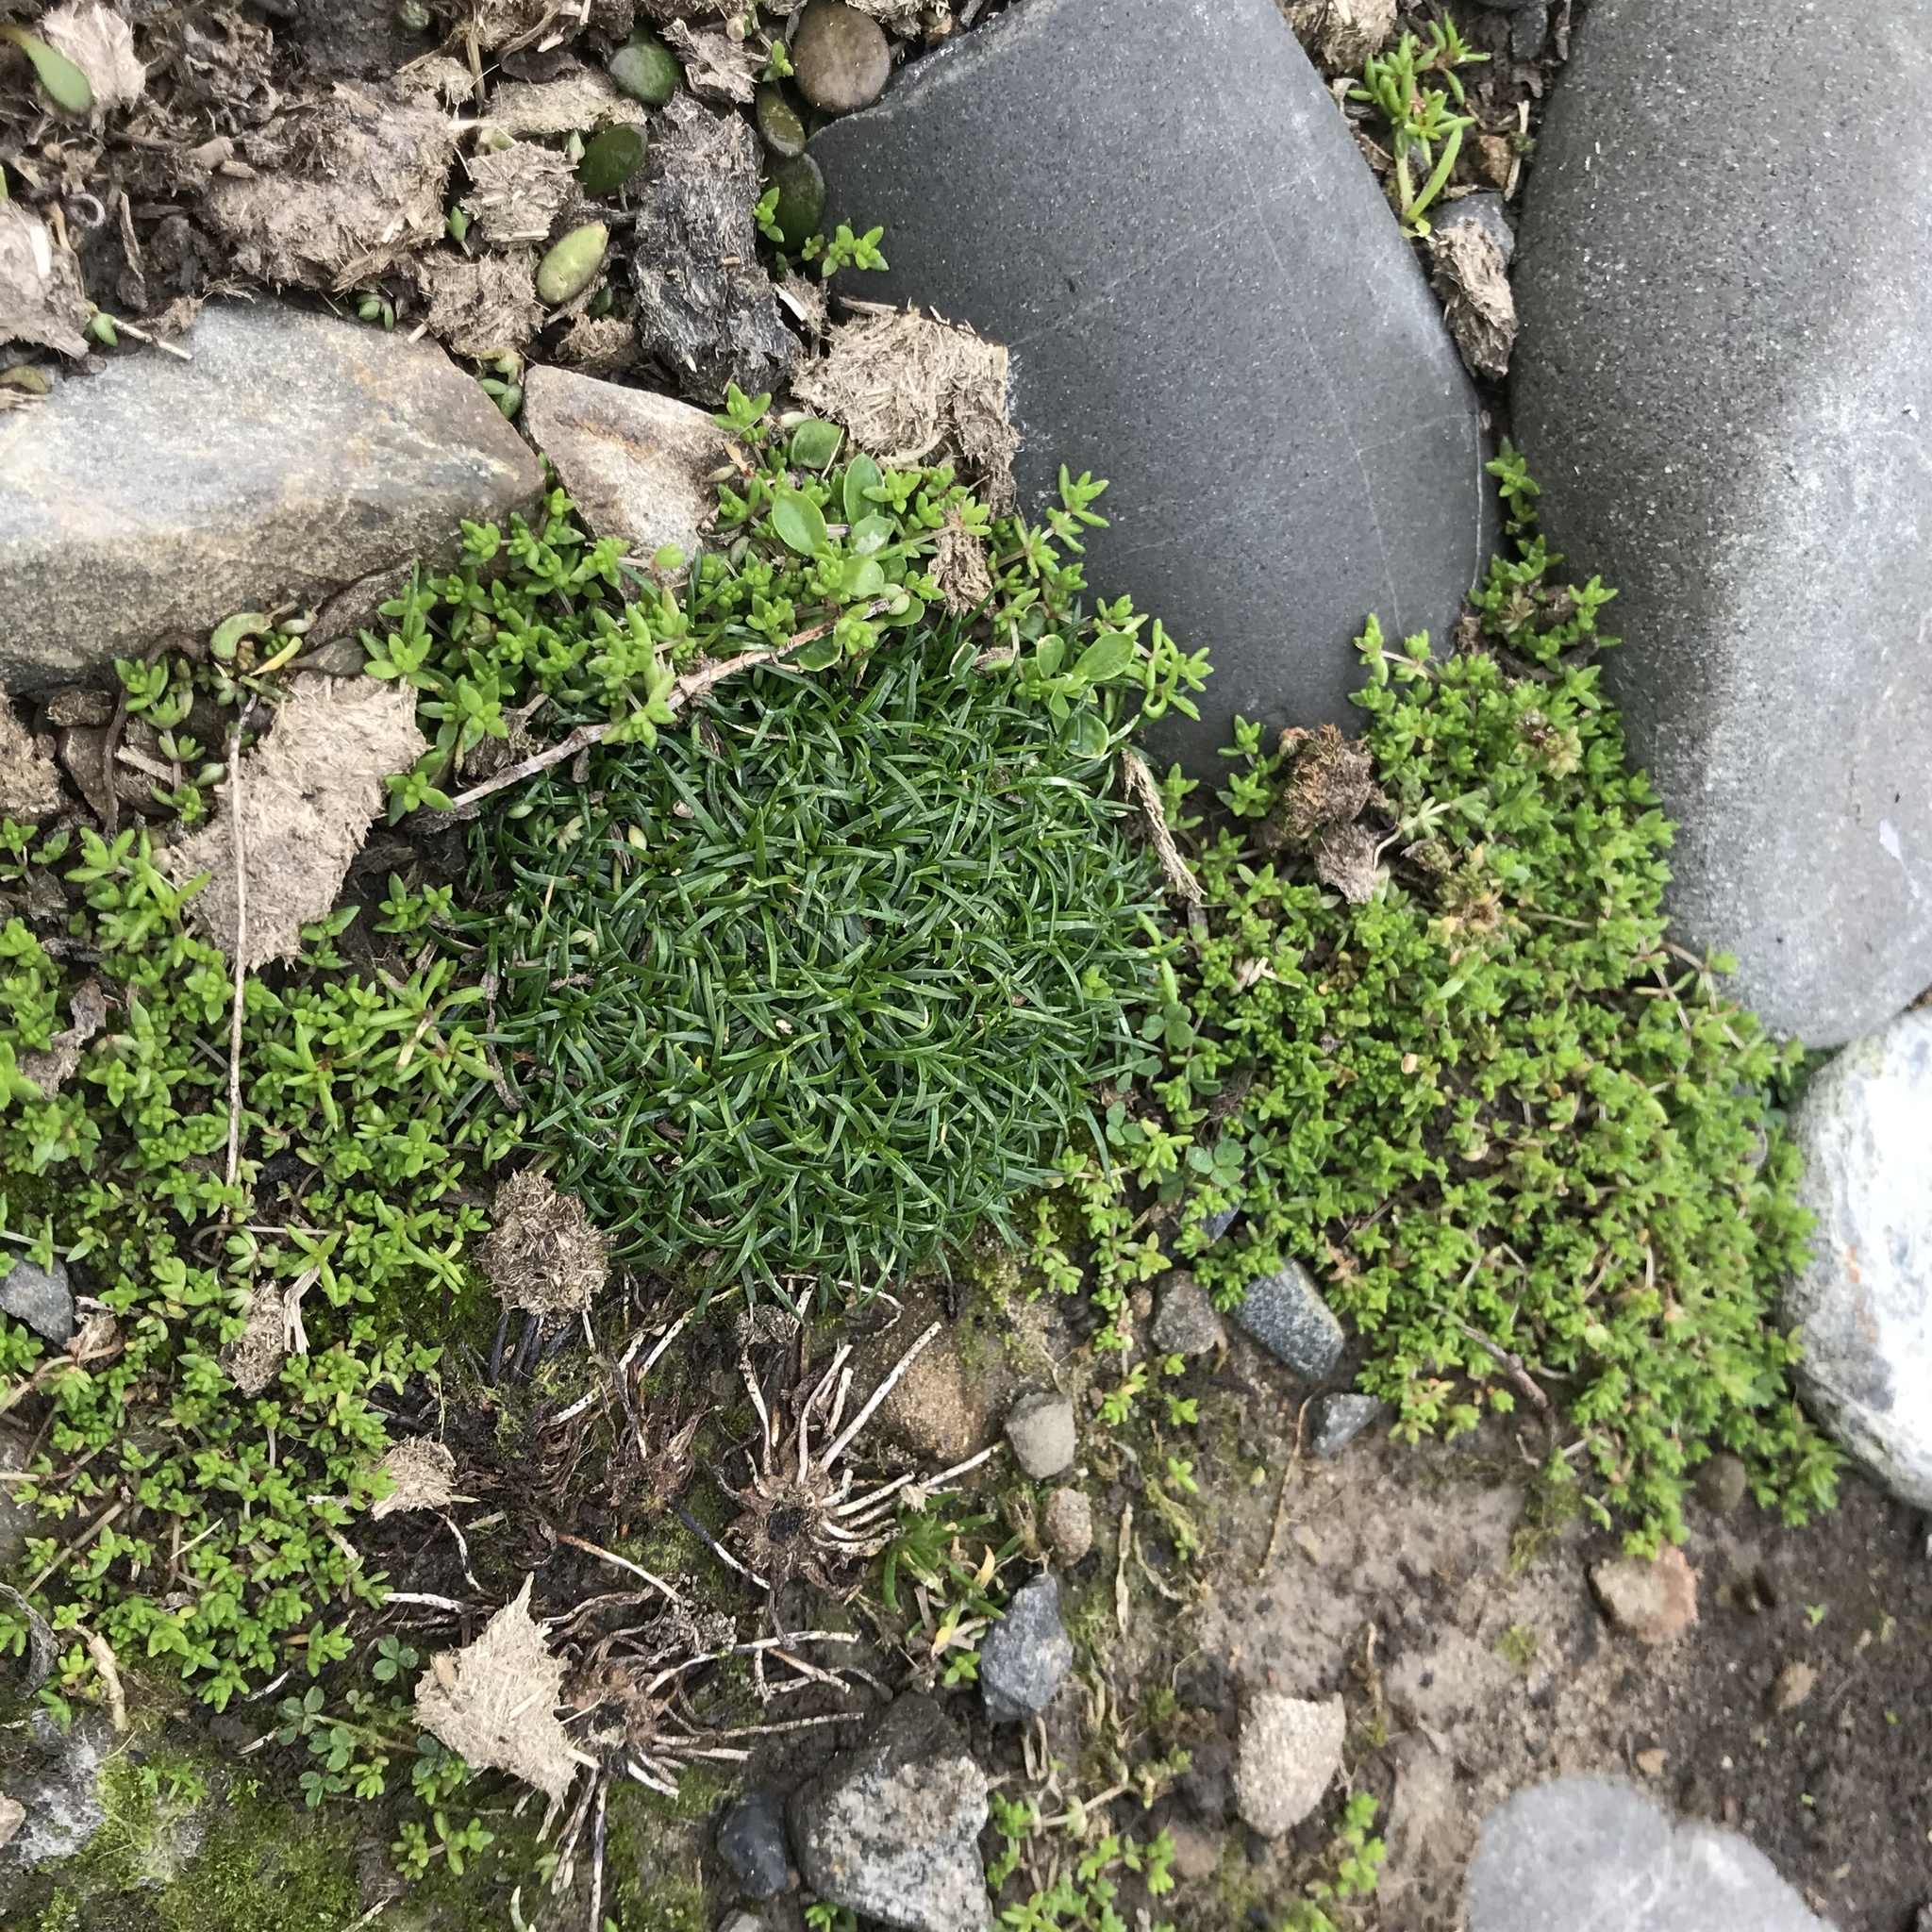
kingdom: Plantae
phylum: Tracheophyta
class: Magnoliopsida
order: Caryophyllales
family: Caryophyllaceae
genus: Sagina
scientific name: Sagina procumbens
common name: Procumbent pearlwort
